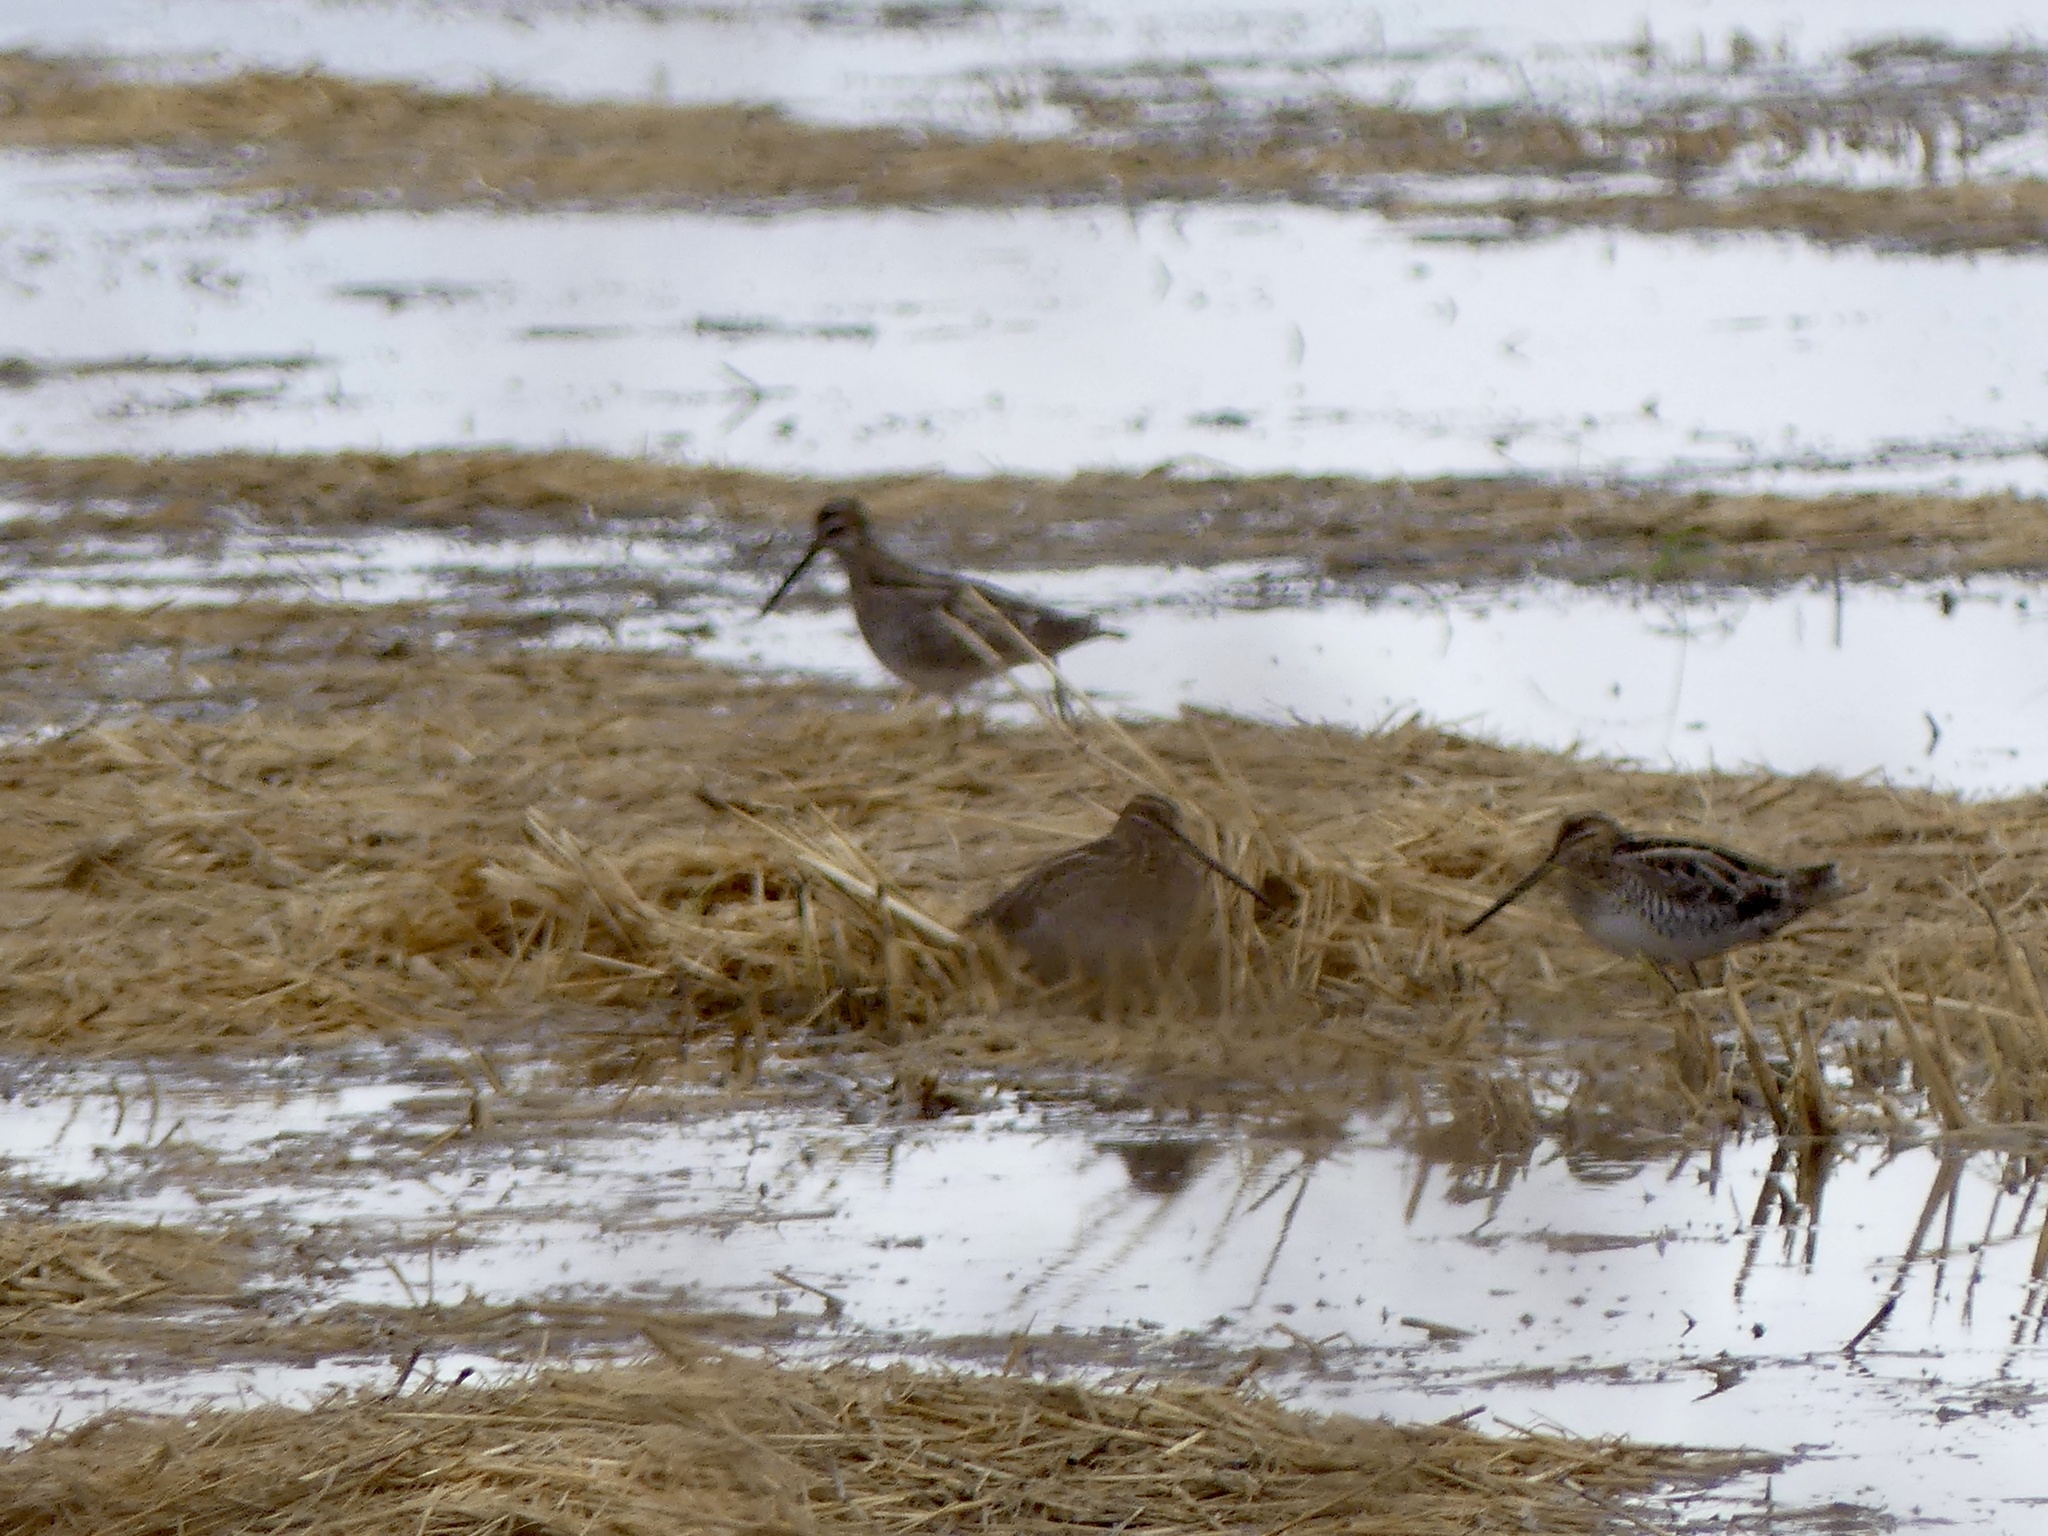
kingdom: Animalia
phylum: Chordata
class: Aves
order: Charadriiformes
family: Scolopacidae
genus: Gallinago
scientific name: Gallinago delicata
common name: Wilson's snipe
